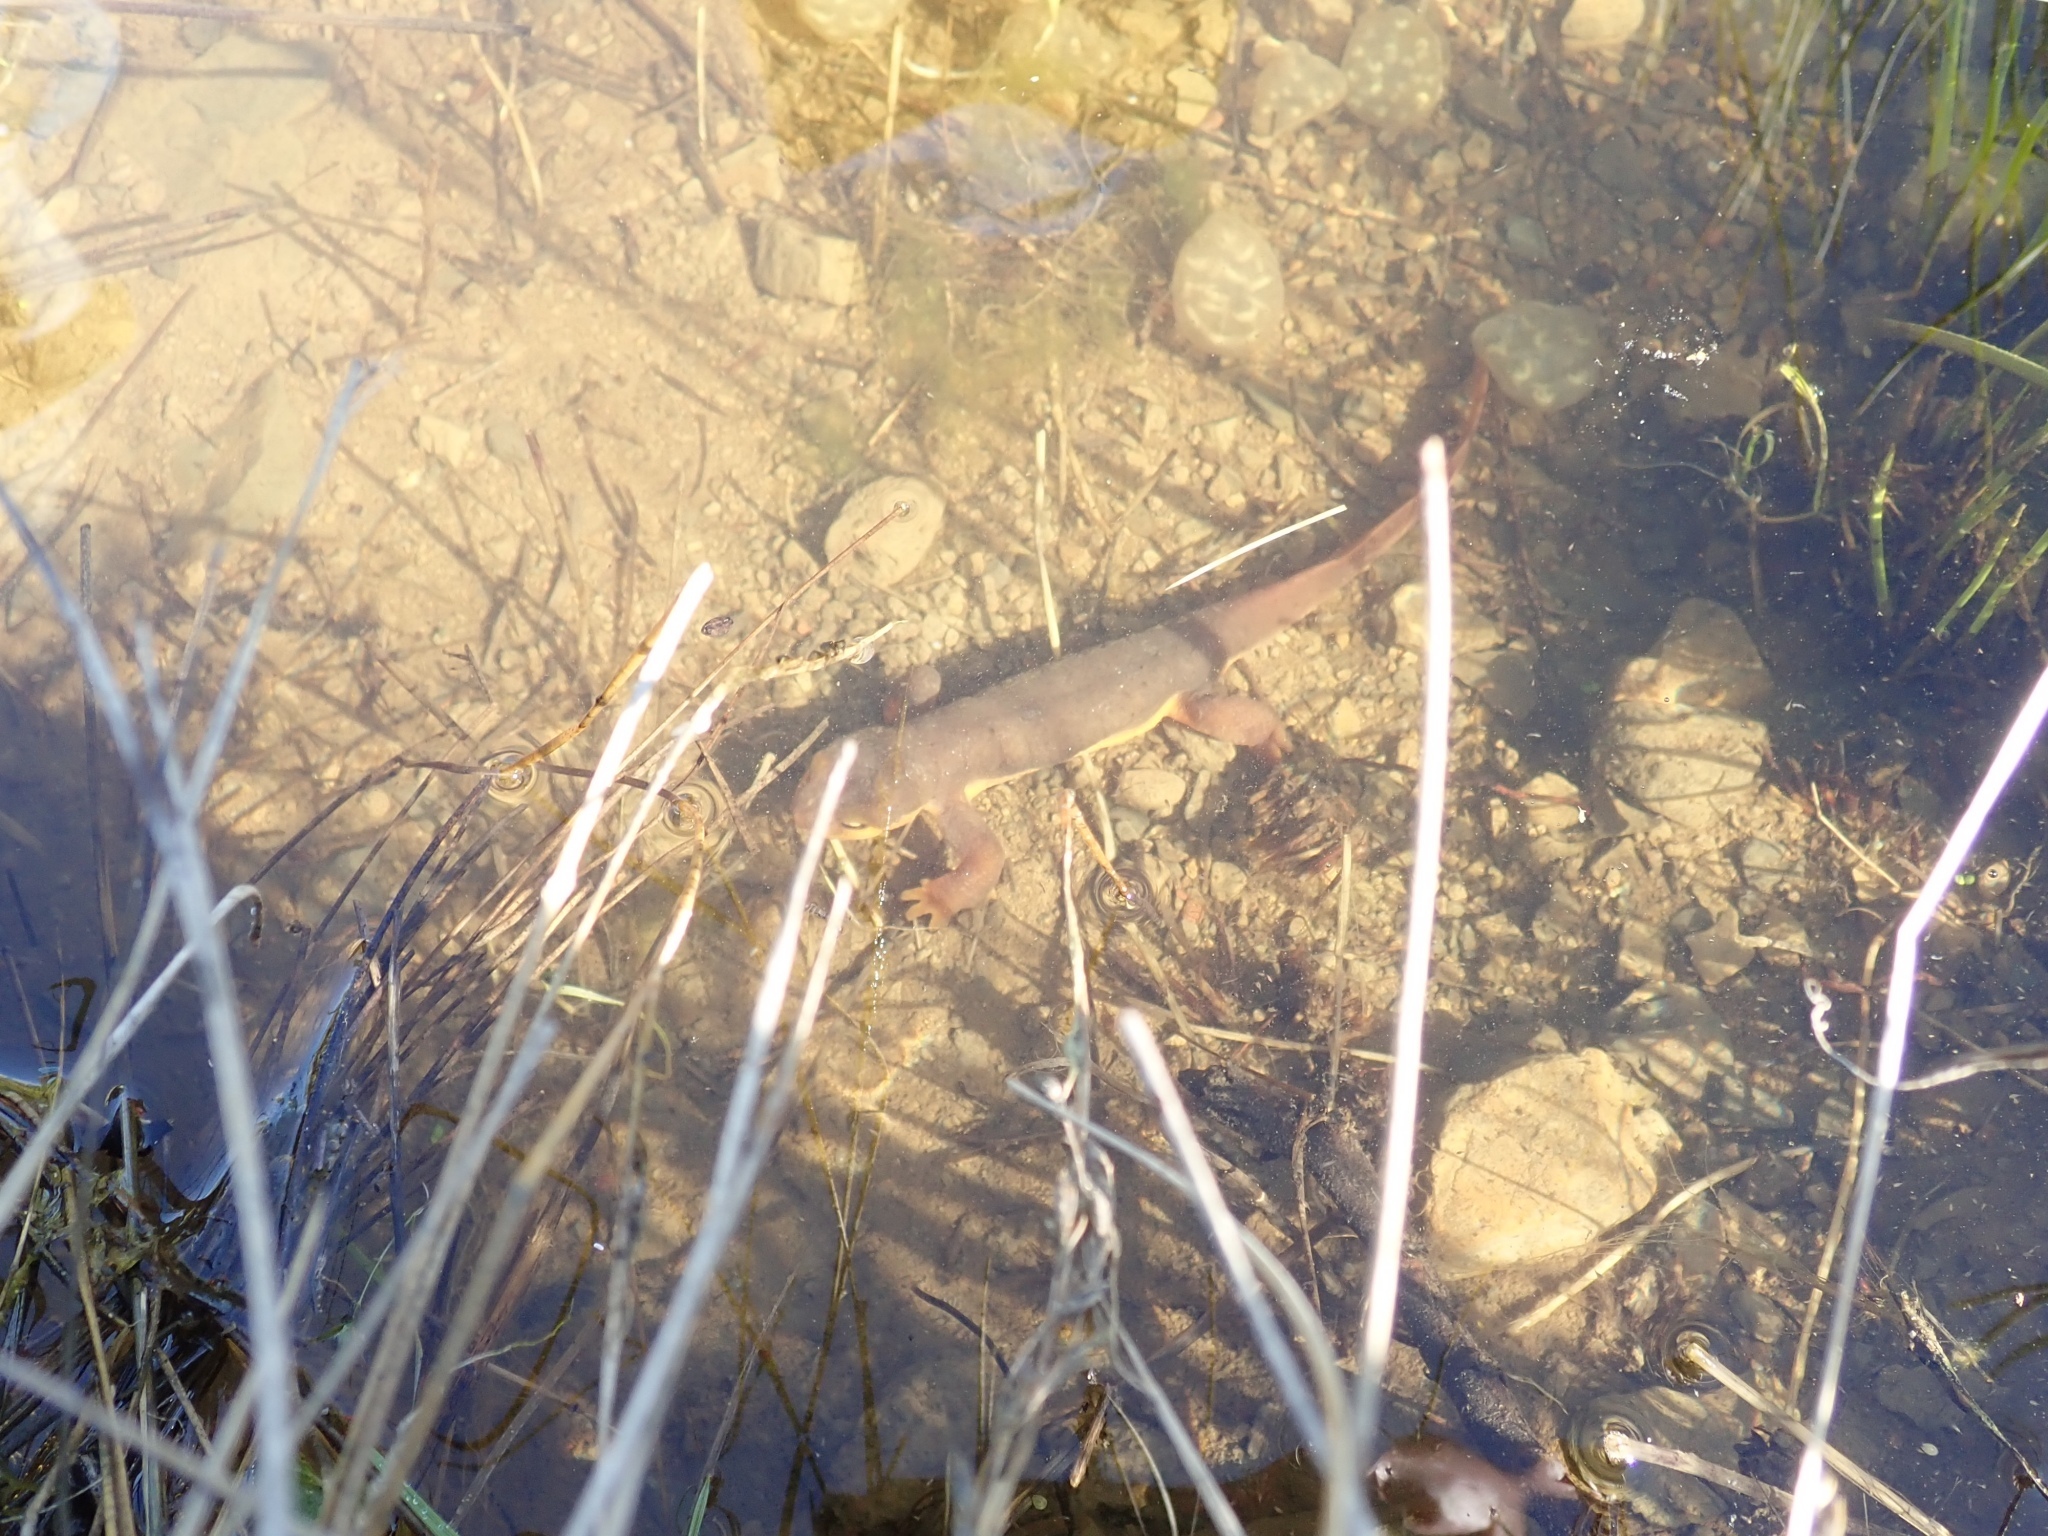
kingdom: Animalia
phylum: Chordata
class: Amphibia
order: Caudata
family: Salamandridae
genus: Taricha
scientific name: Taricha torosa
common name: California newt
